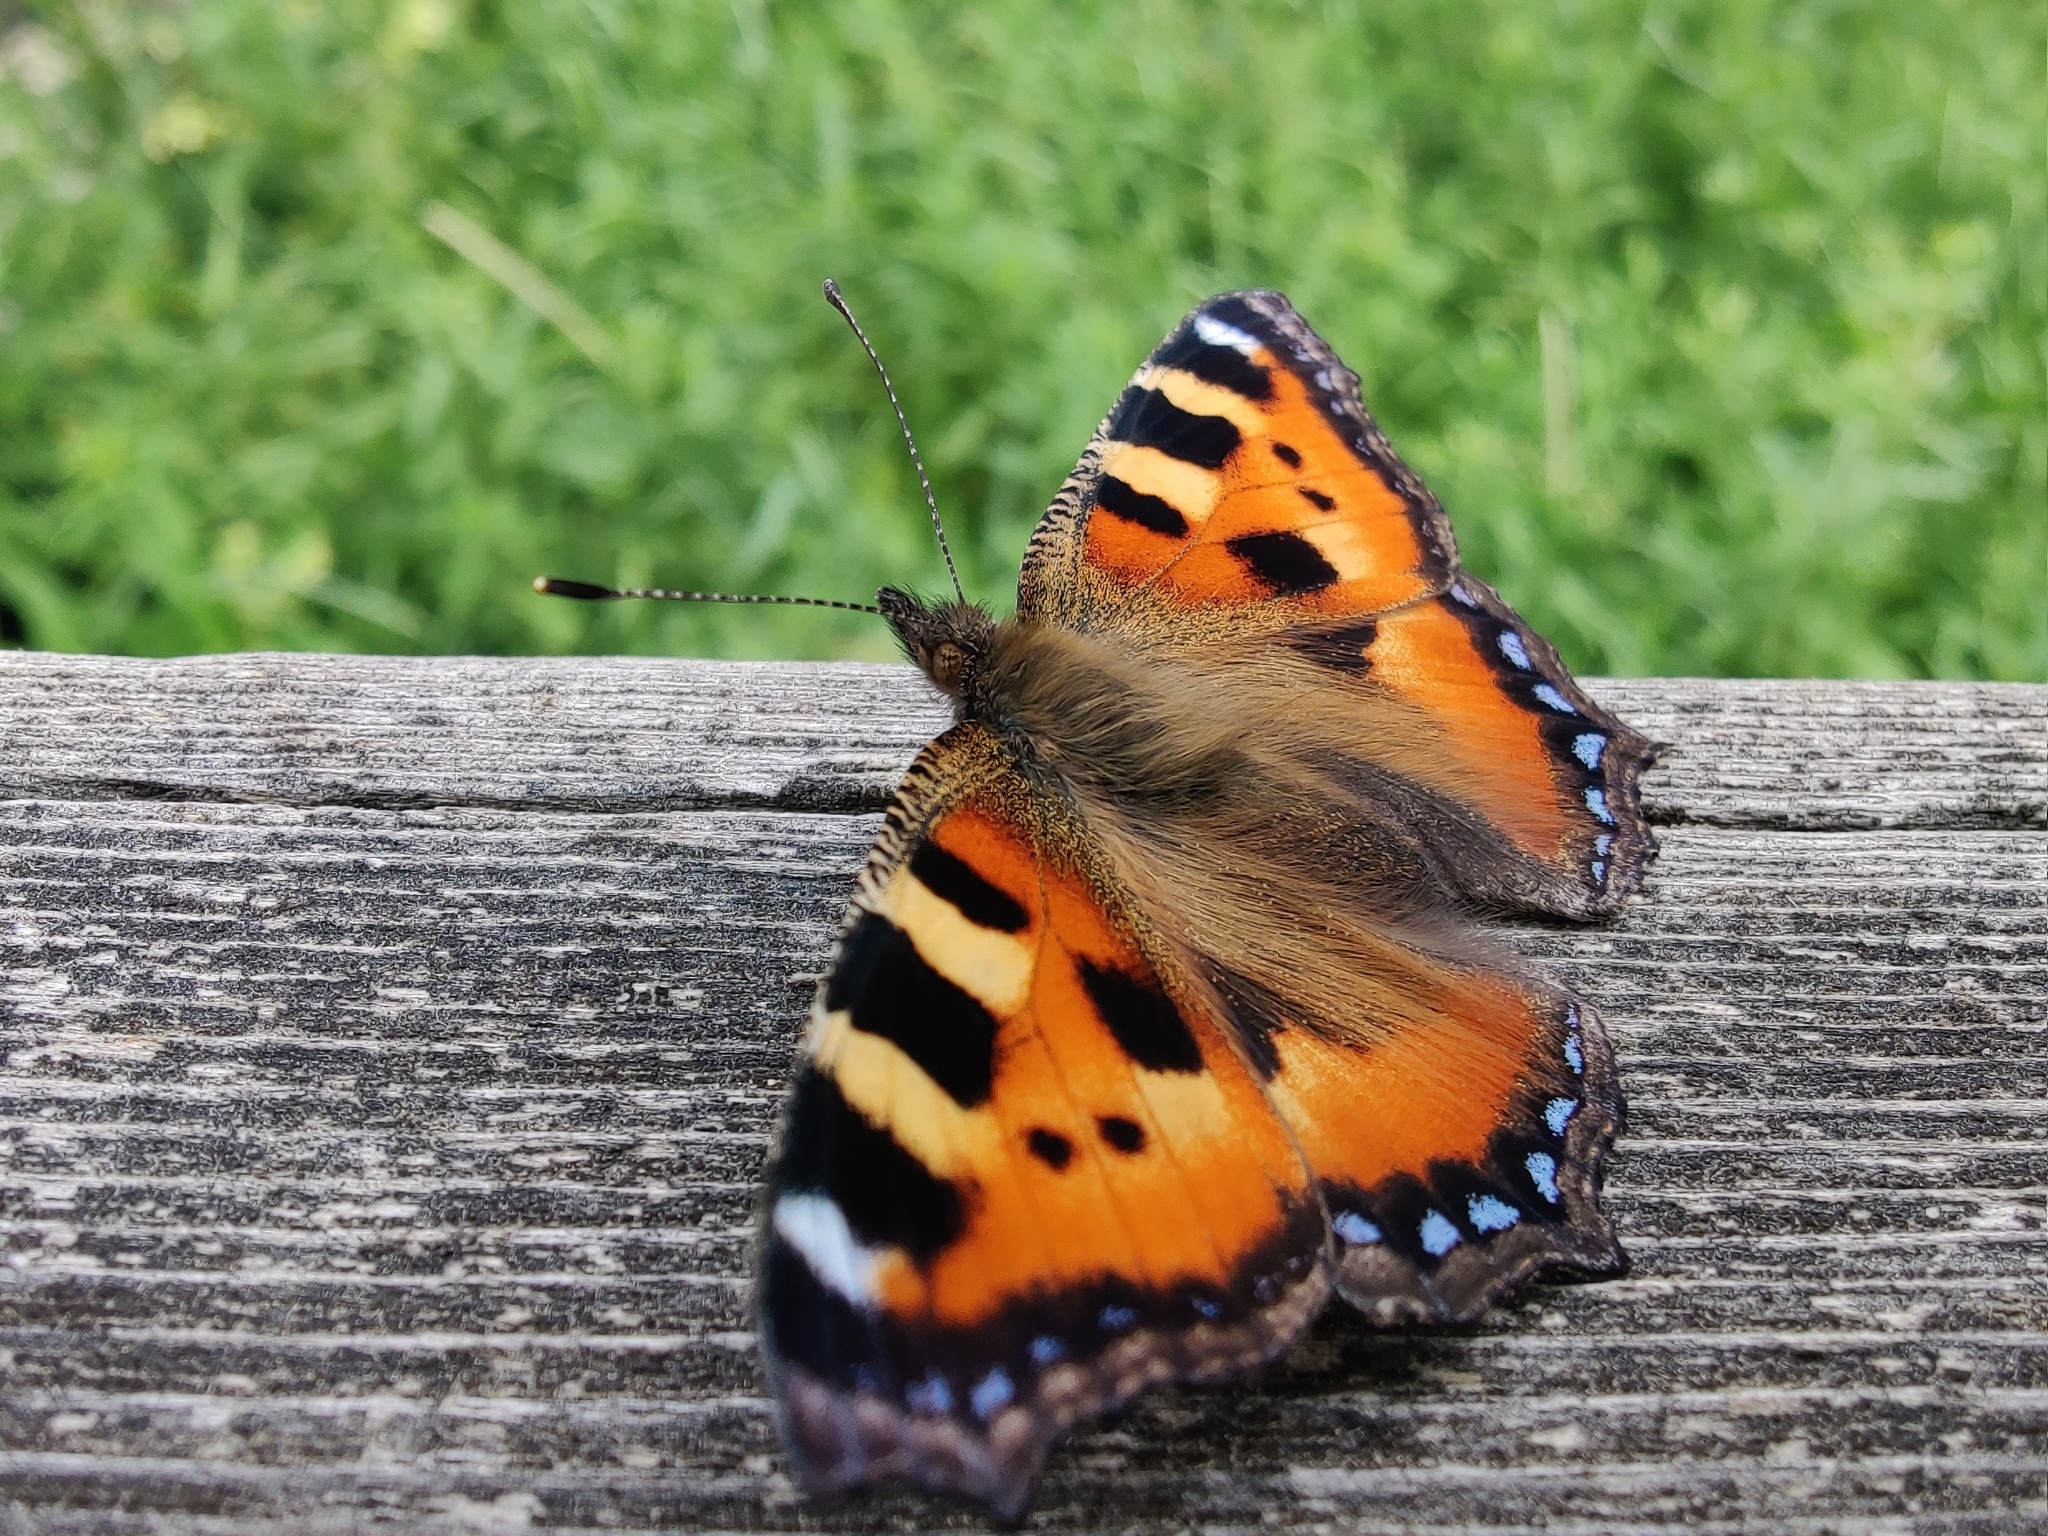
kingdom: Animalia
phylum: Arthropoda
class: Insecta
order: Lepidoptera
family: Nymphalidae
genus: Aglais
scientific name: Aglais urticae
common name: Small tortoiseshell
